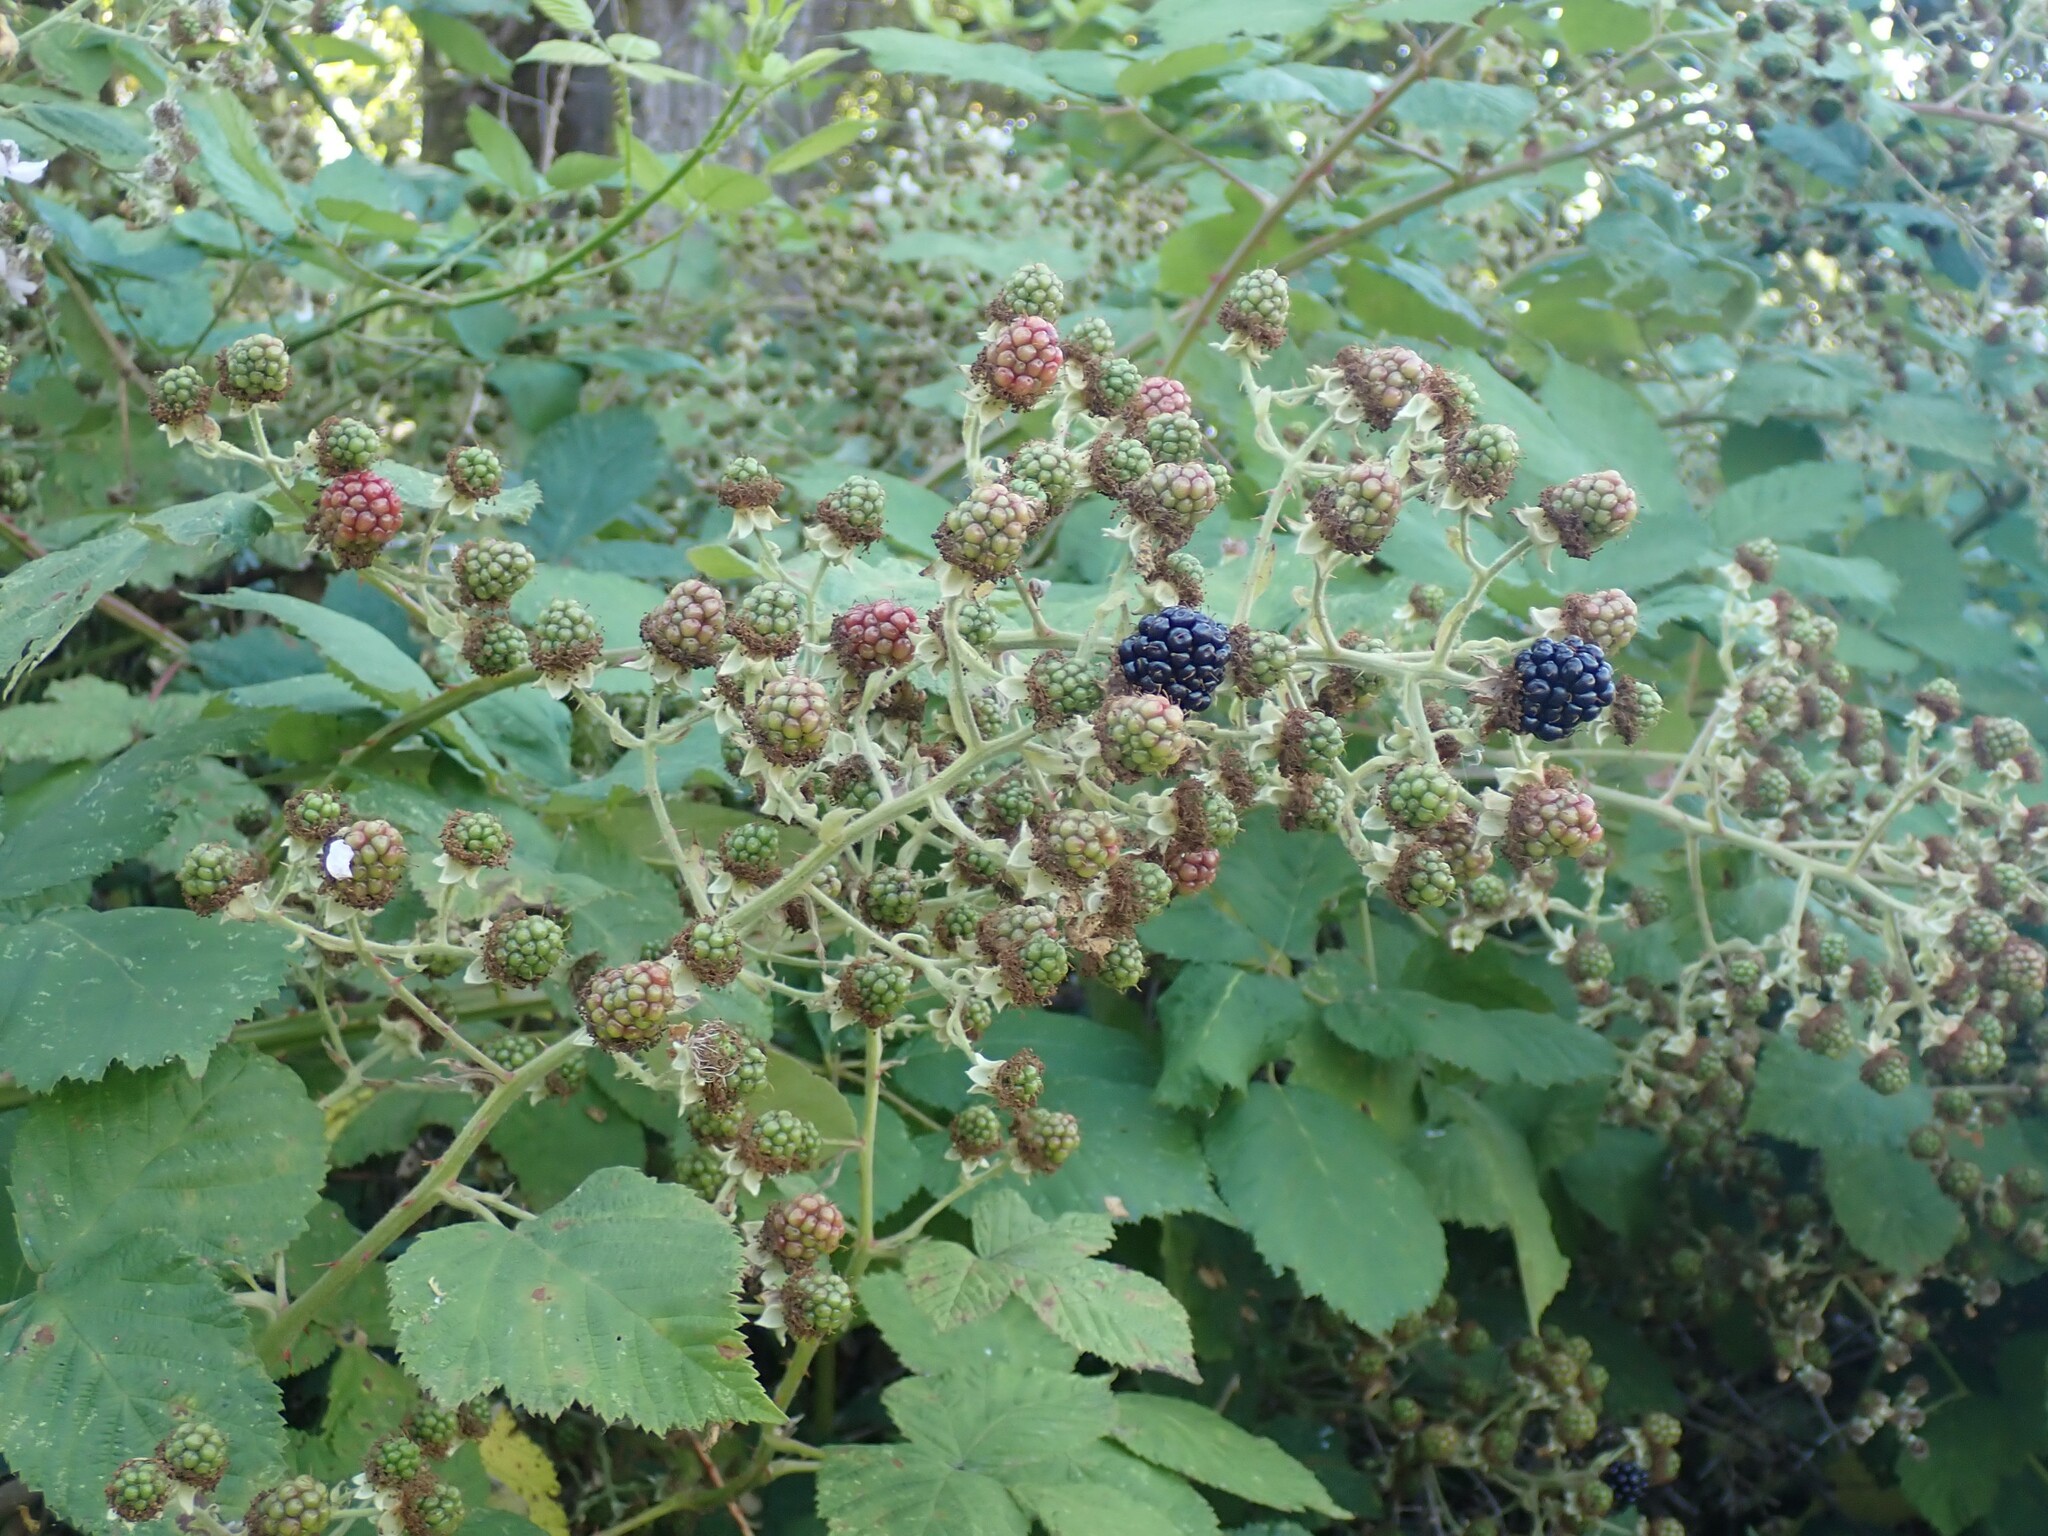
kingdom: Plantae
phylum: Tracheophyta
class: Magnoliopsida
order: Rosales
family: Rosaceae
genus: Rubus
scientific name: Rubus bifrons
